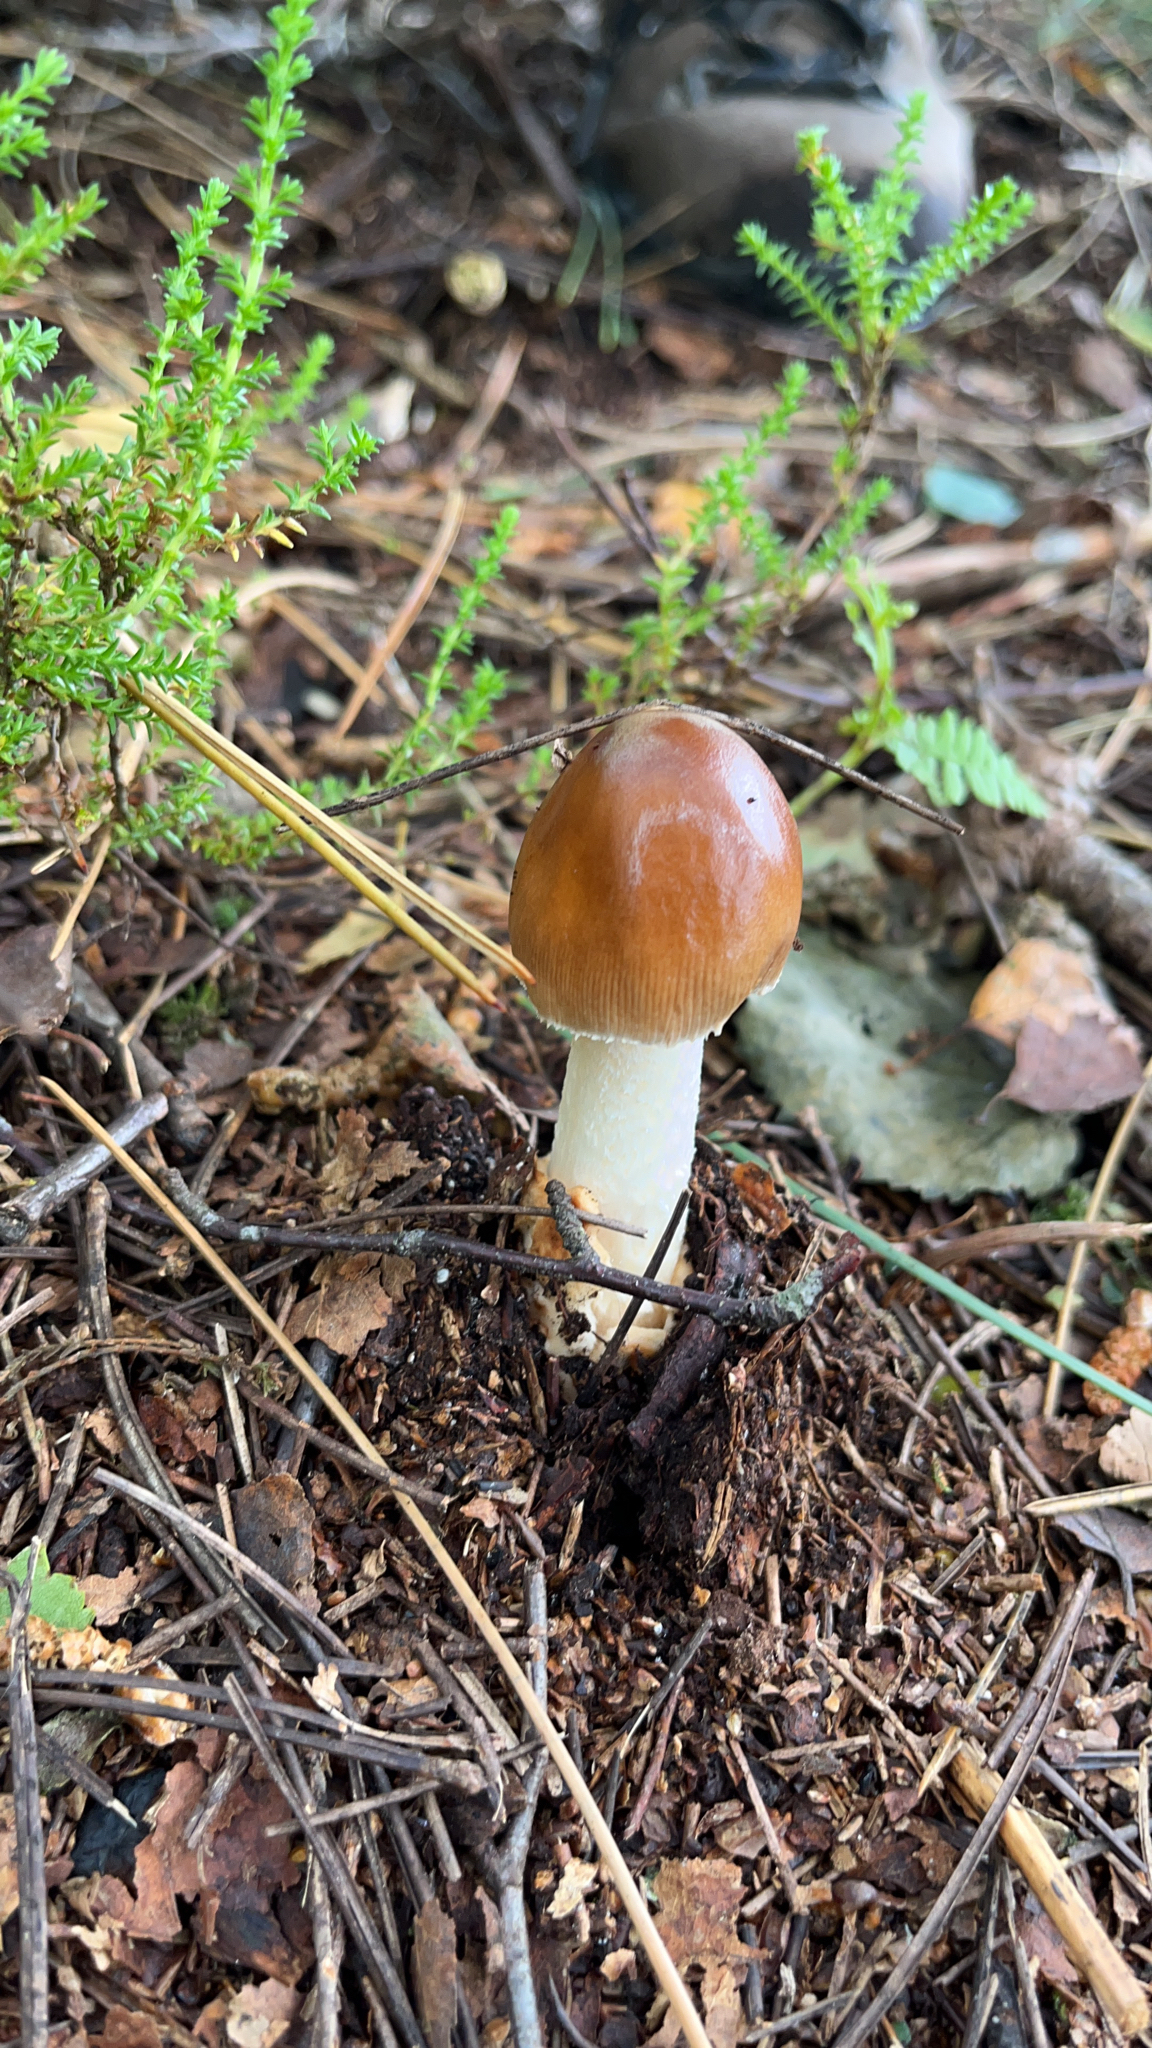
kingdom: Fungi
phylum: Basidiomycota
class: Agaricomycetes
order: Agaricales
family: Amanitaceae
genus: Amanita
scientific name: Amanita fulva
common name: Tawny grisette
